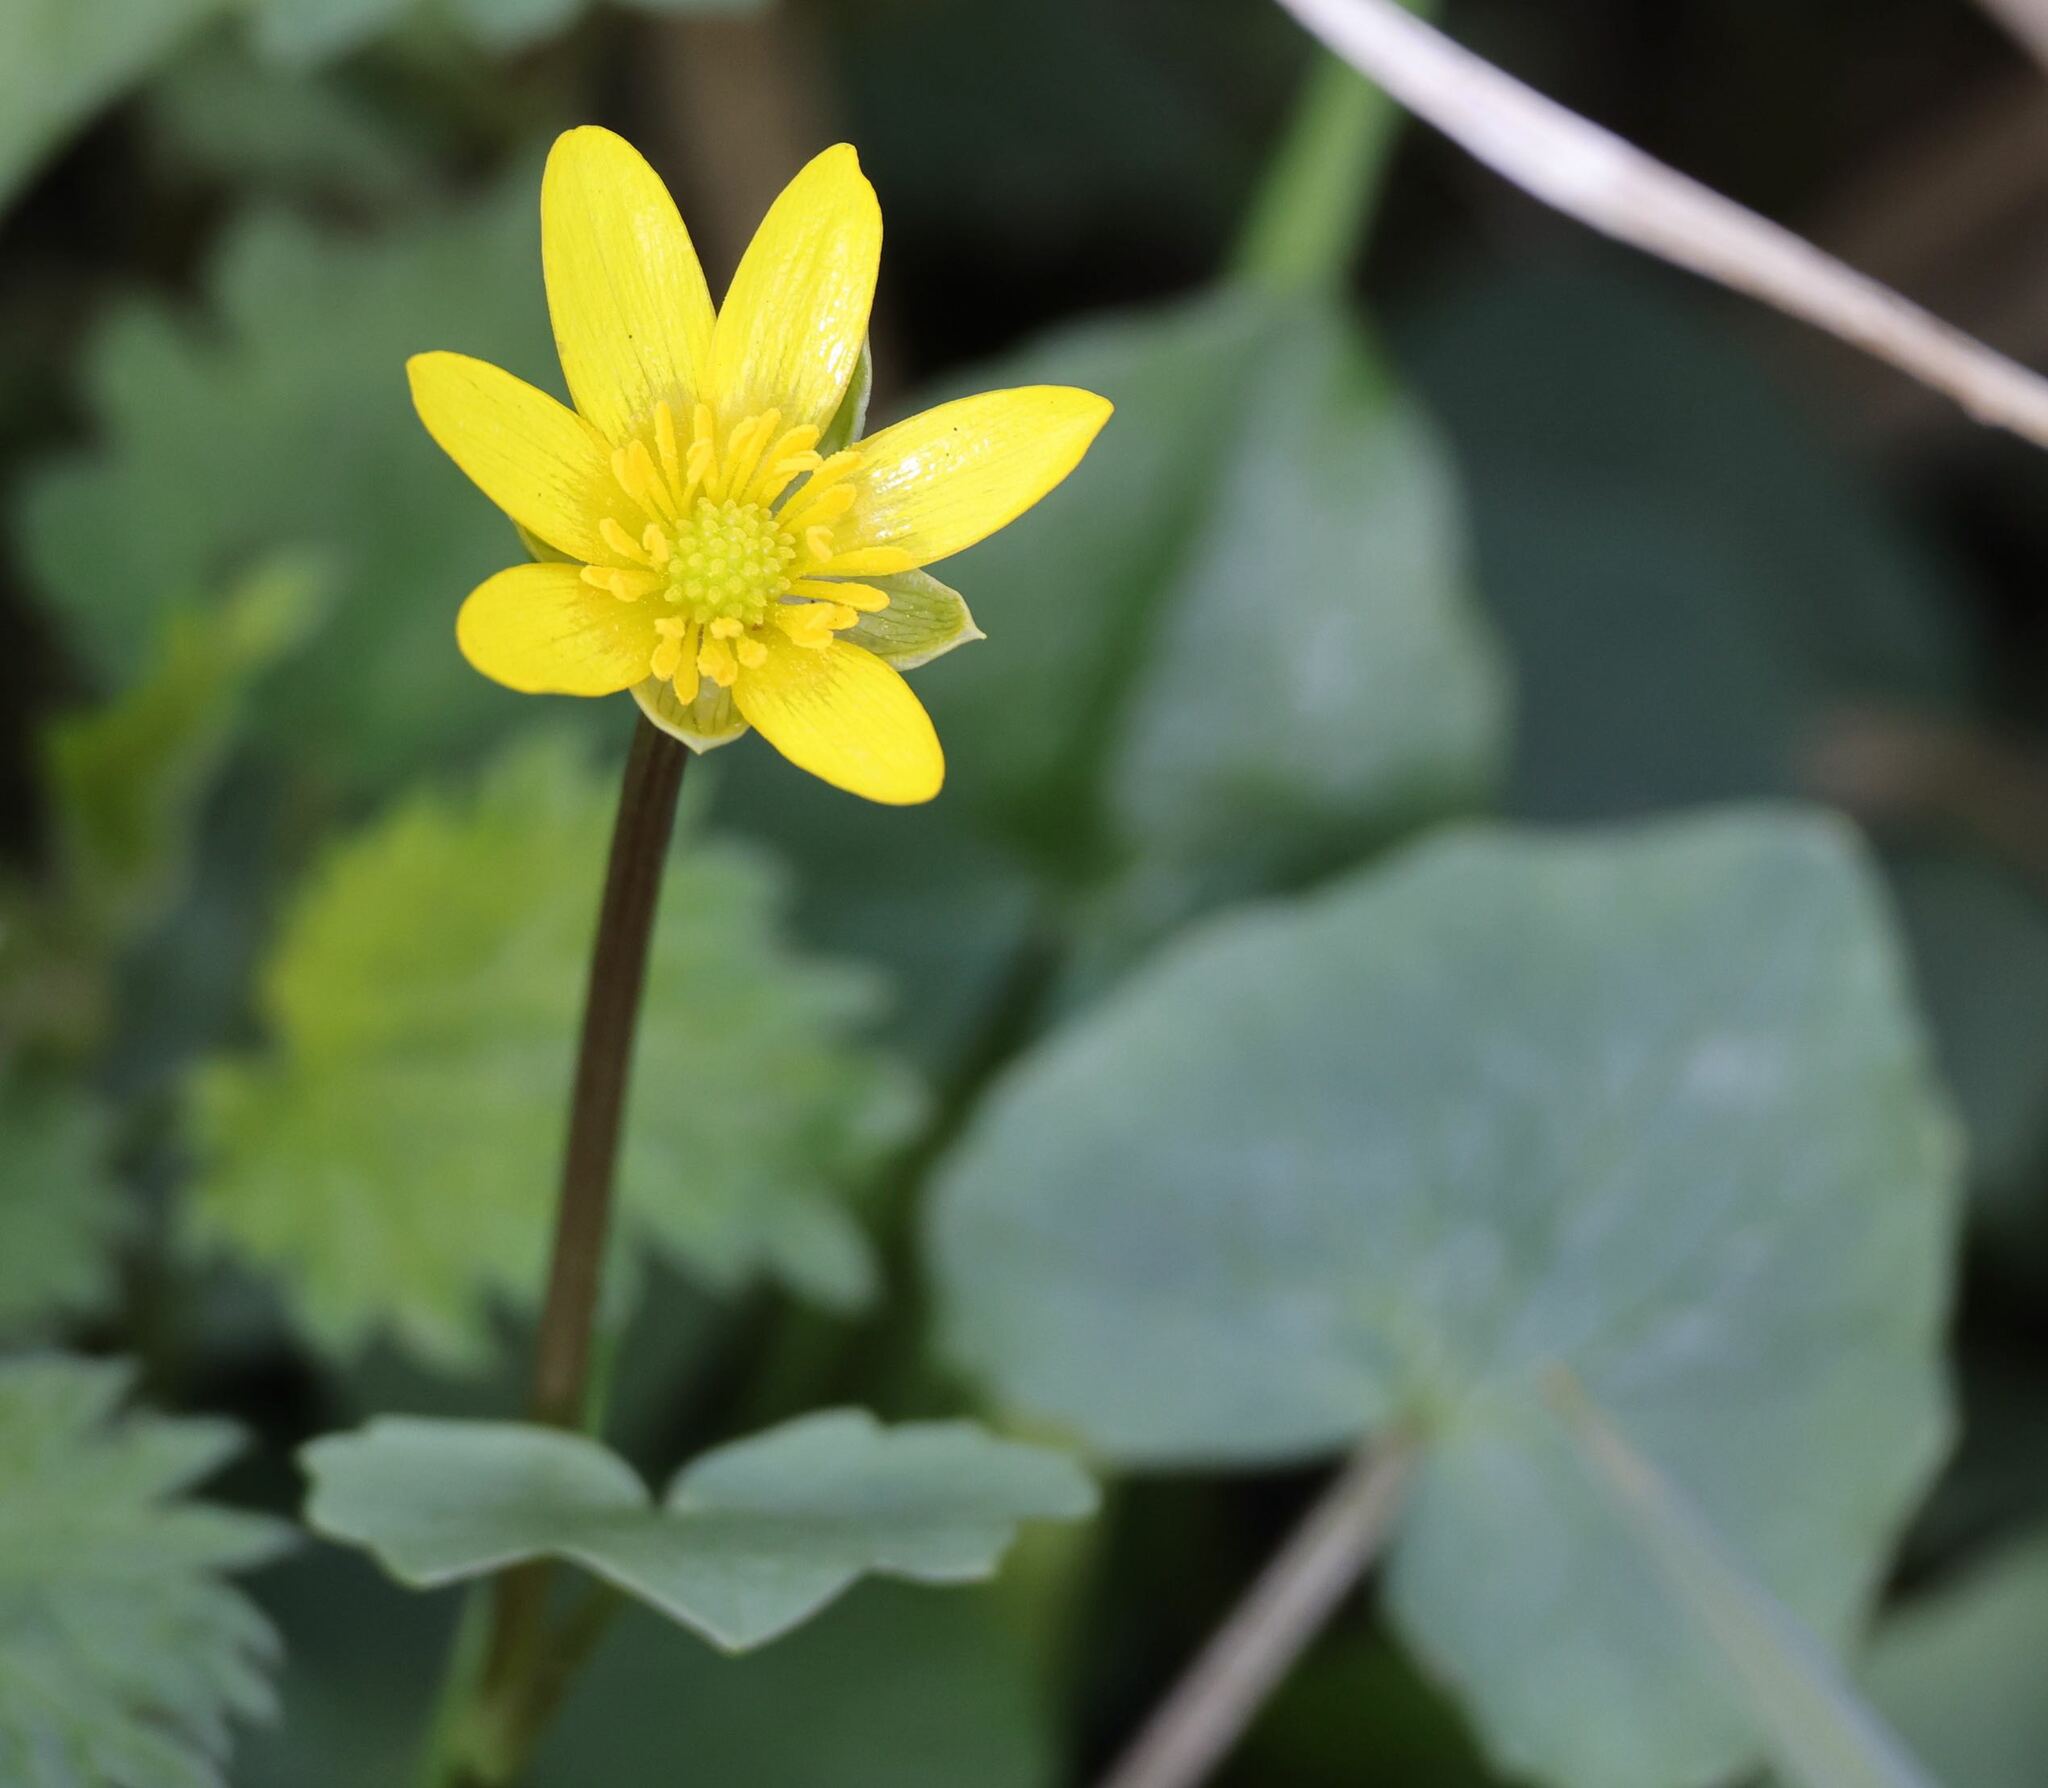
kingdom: Plantae
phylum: Tracheophyta
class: Magnoliopsida
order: Ranunculales
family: Ranunculaceae
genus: Ficaria
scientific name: Ficaria verna
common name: Lesser celandine
